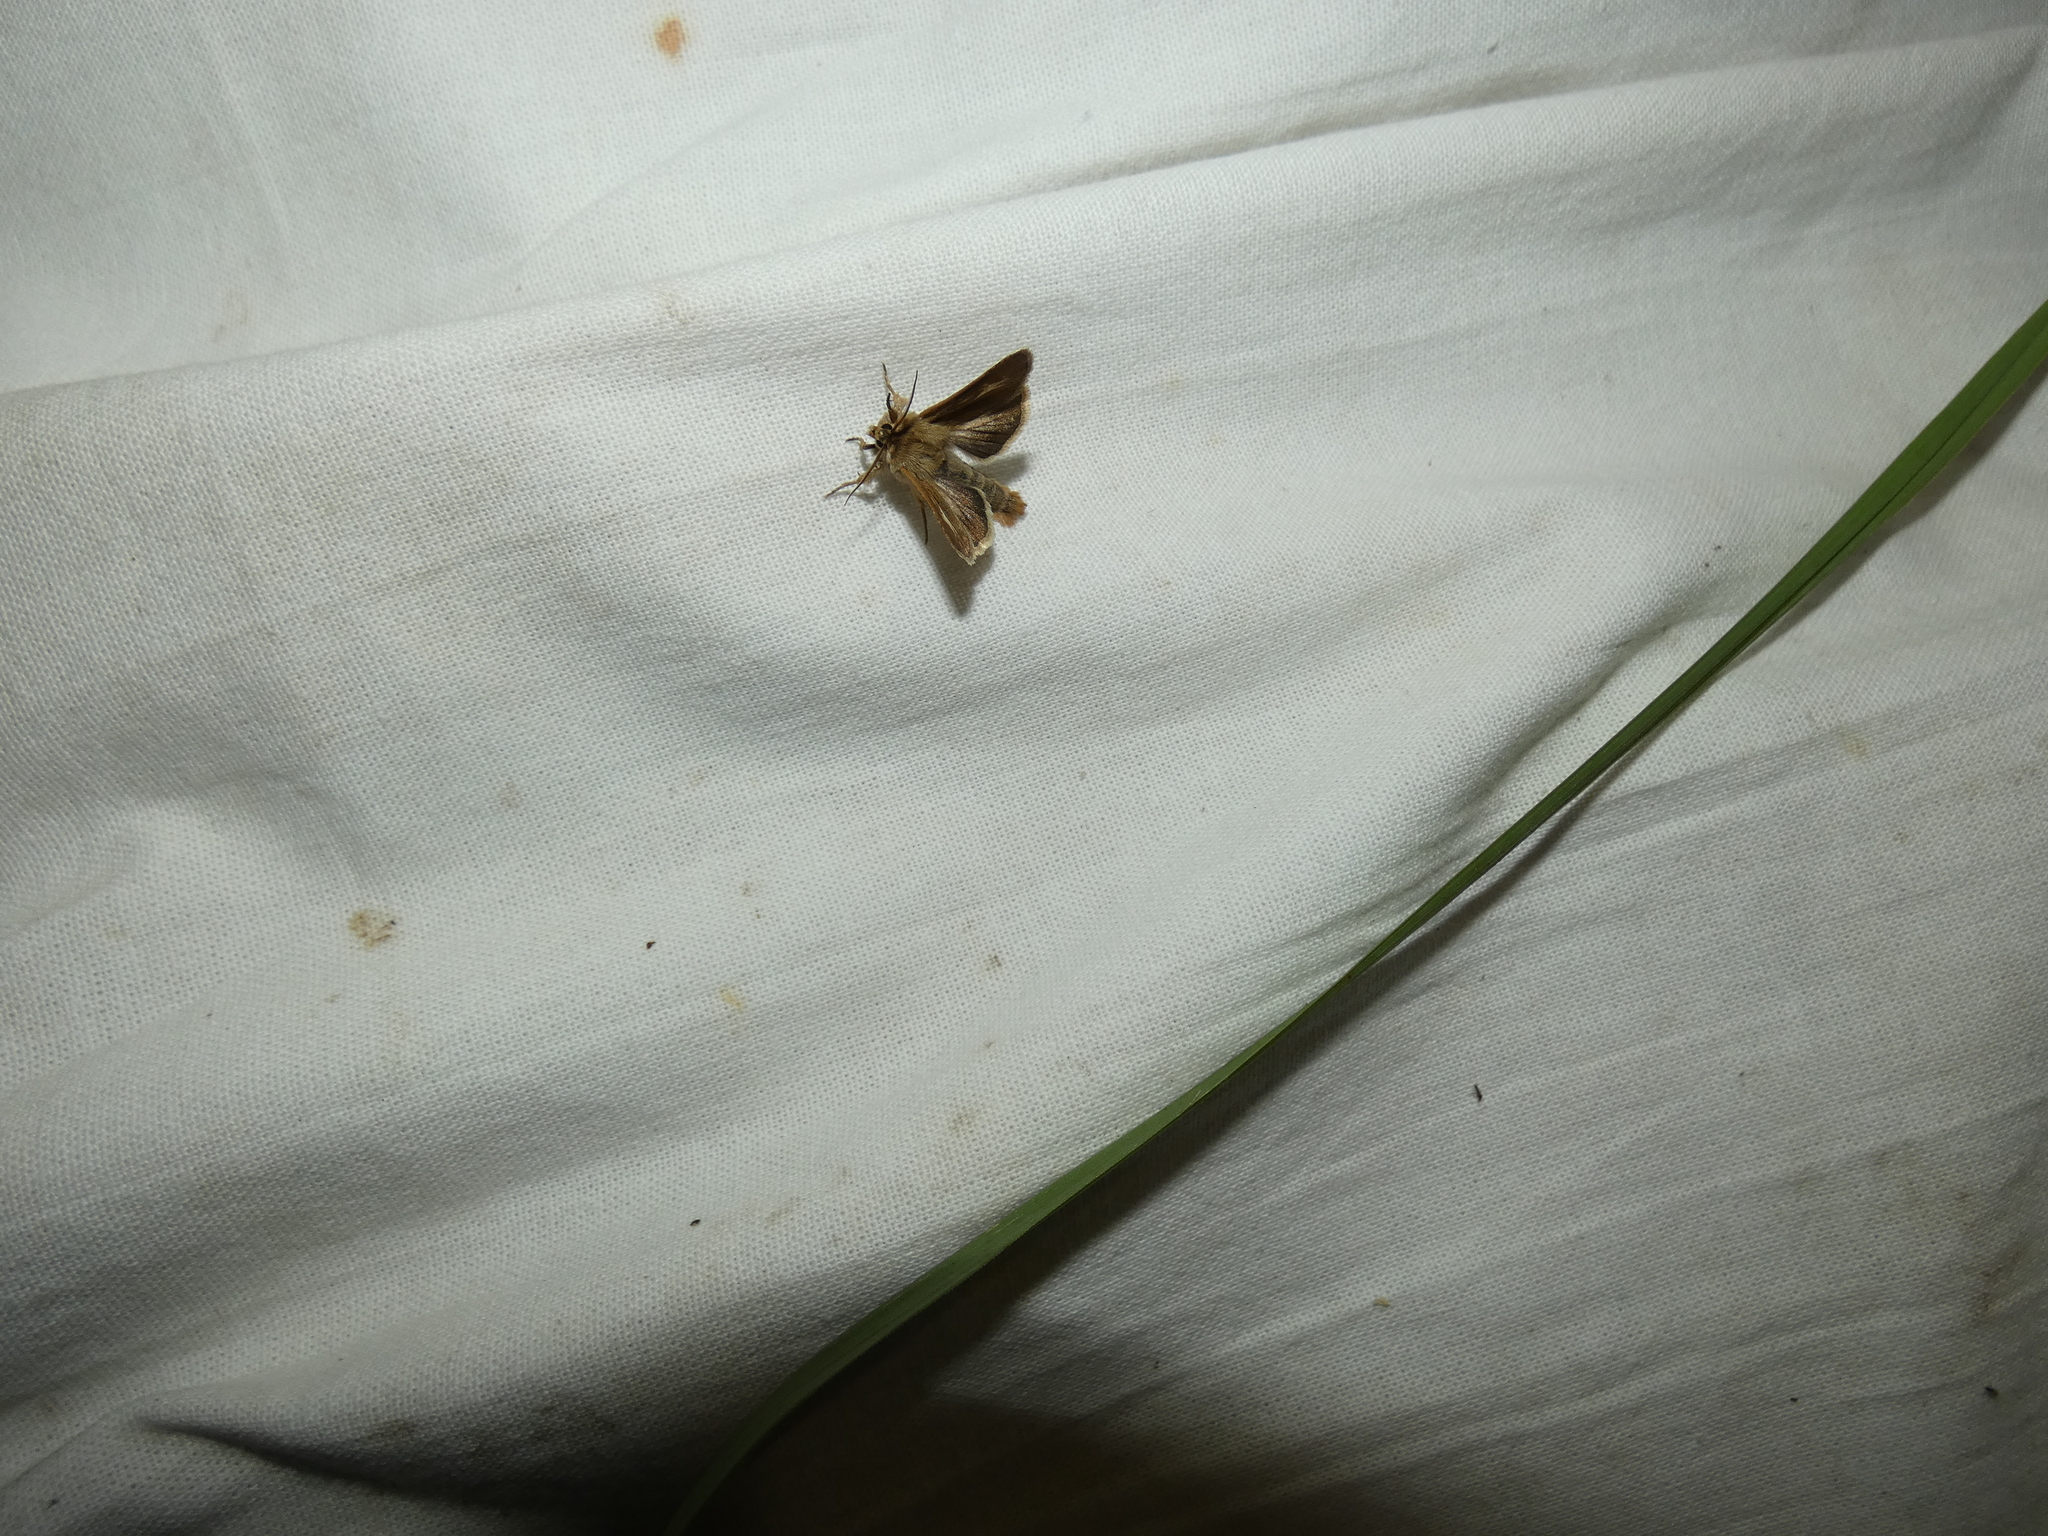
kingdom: Animalia
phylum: Arthropoda
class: Insecta
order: Lepidoptera
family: Noctuidae
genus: Cerapteryx
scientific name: Cerapteryx graminis
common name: Antler moth
